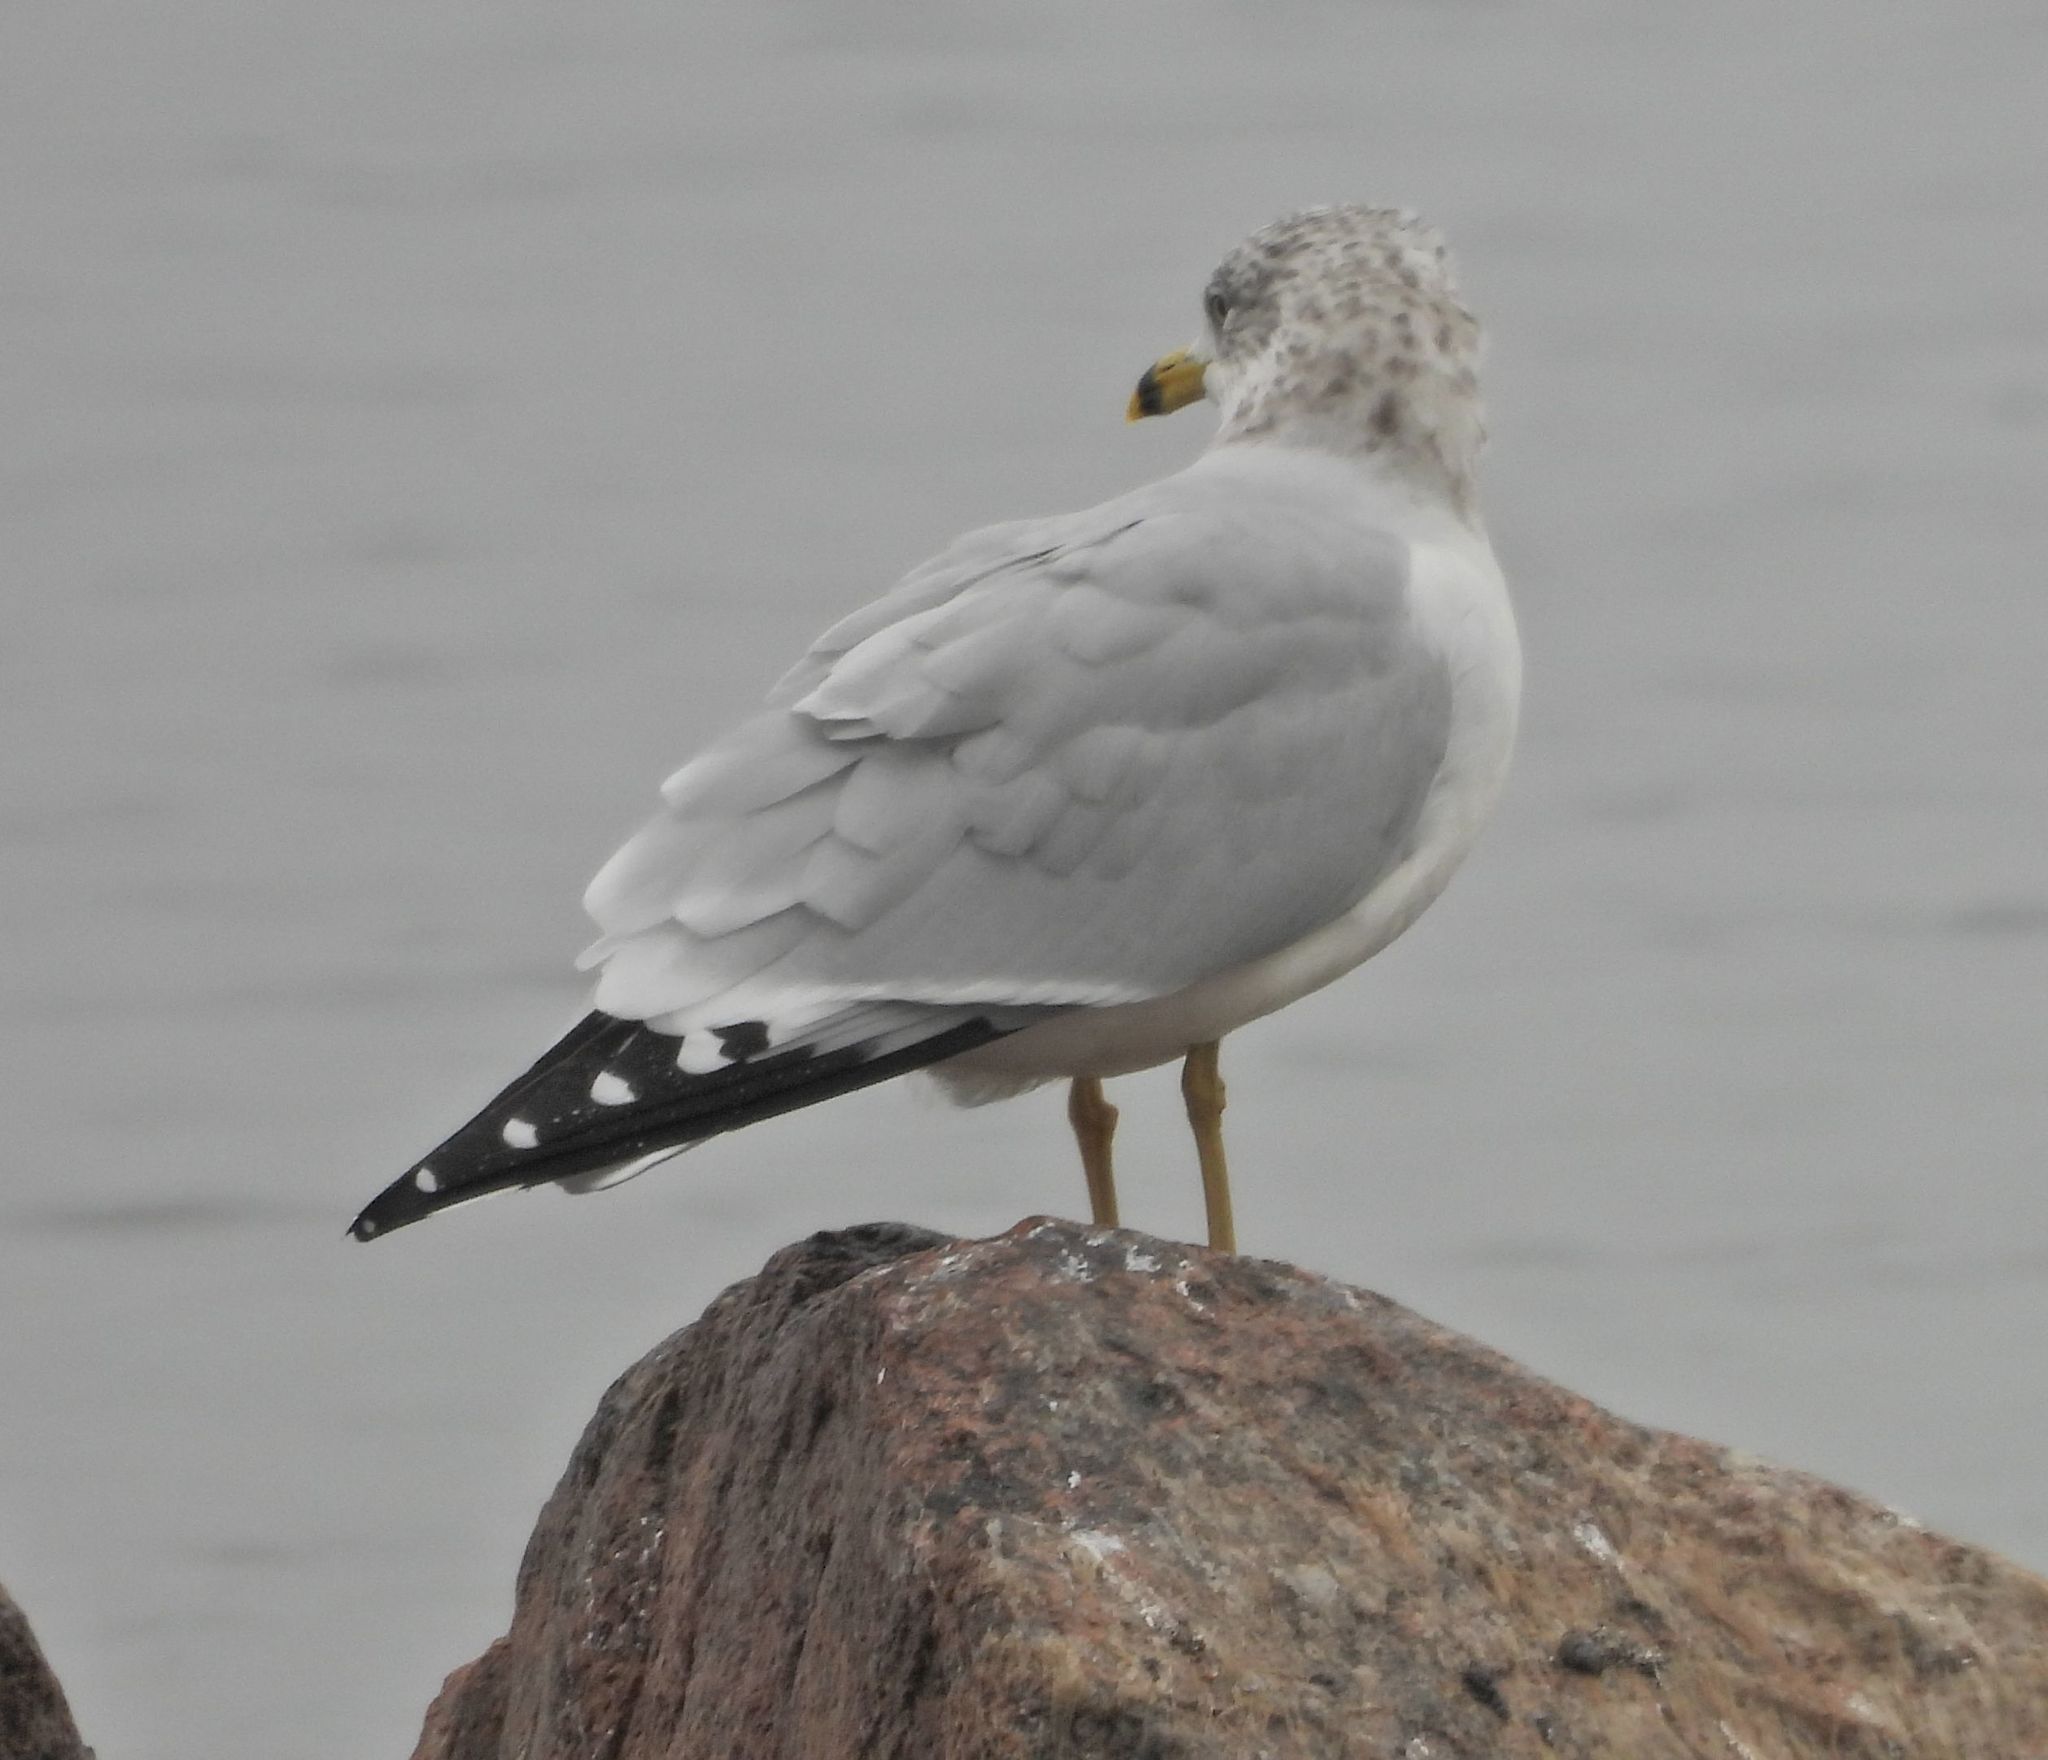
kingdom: Animalia
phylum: Chordata
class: Aves
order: Charadriiformes
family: Laridae
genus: Larus
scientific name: Larus delawarensis
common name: Ring-billed gull
